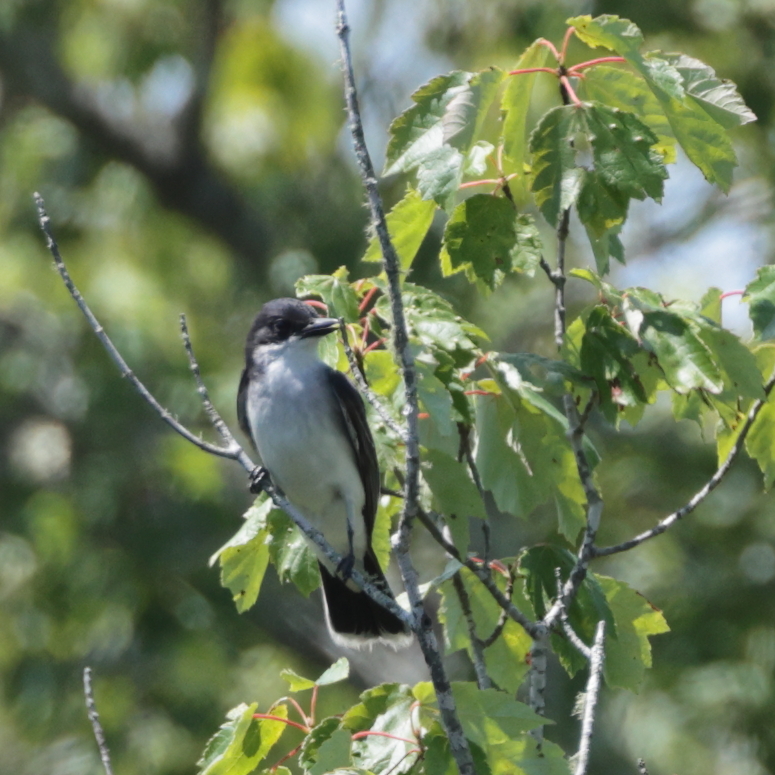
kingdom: Animalia
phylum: Chordata
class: Aves
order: Passeriformes
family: Tyrannidae
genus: Tyrannus
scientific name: Tyrannus tyrannus
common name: Eastern kingbird
